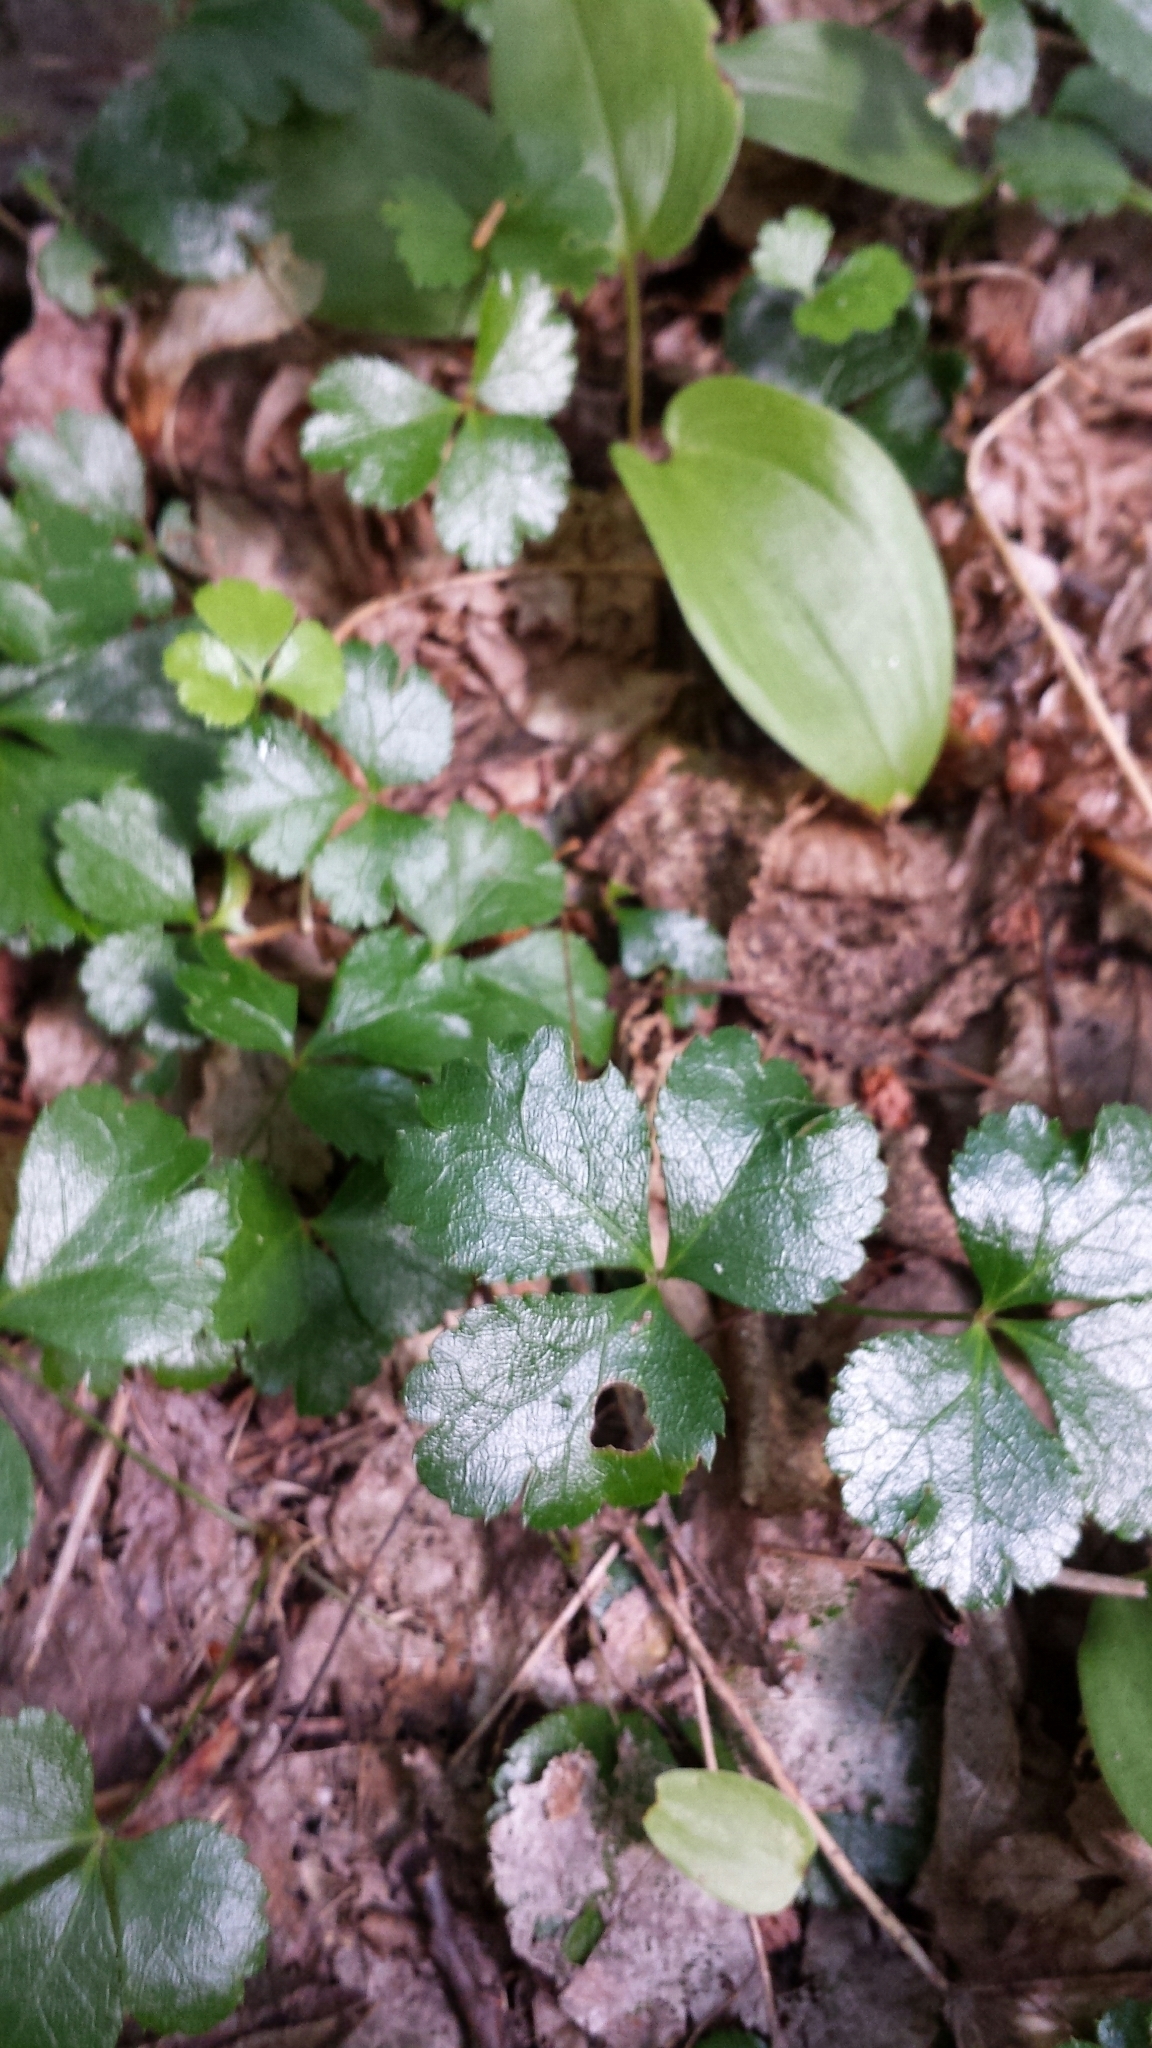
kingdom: Plantae
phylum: Tracheophyta
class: Magnoliopsida
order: Ranunculales
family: Ranunculaceae
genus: Coptis
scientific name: Coptis trifolia
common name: Canker-root
